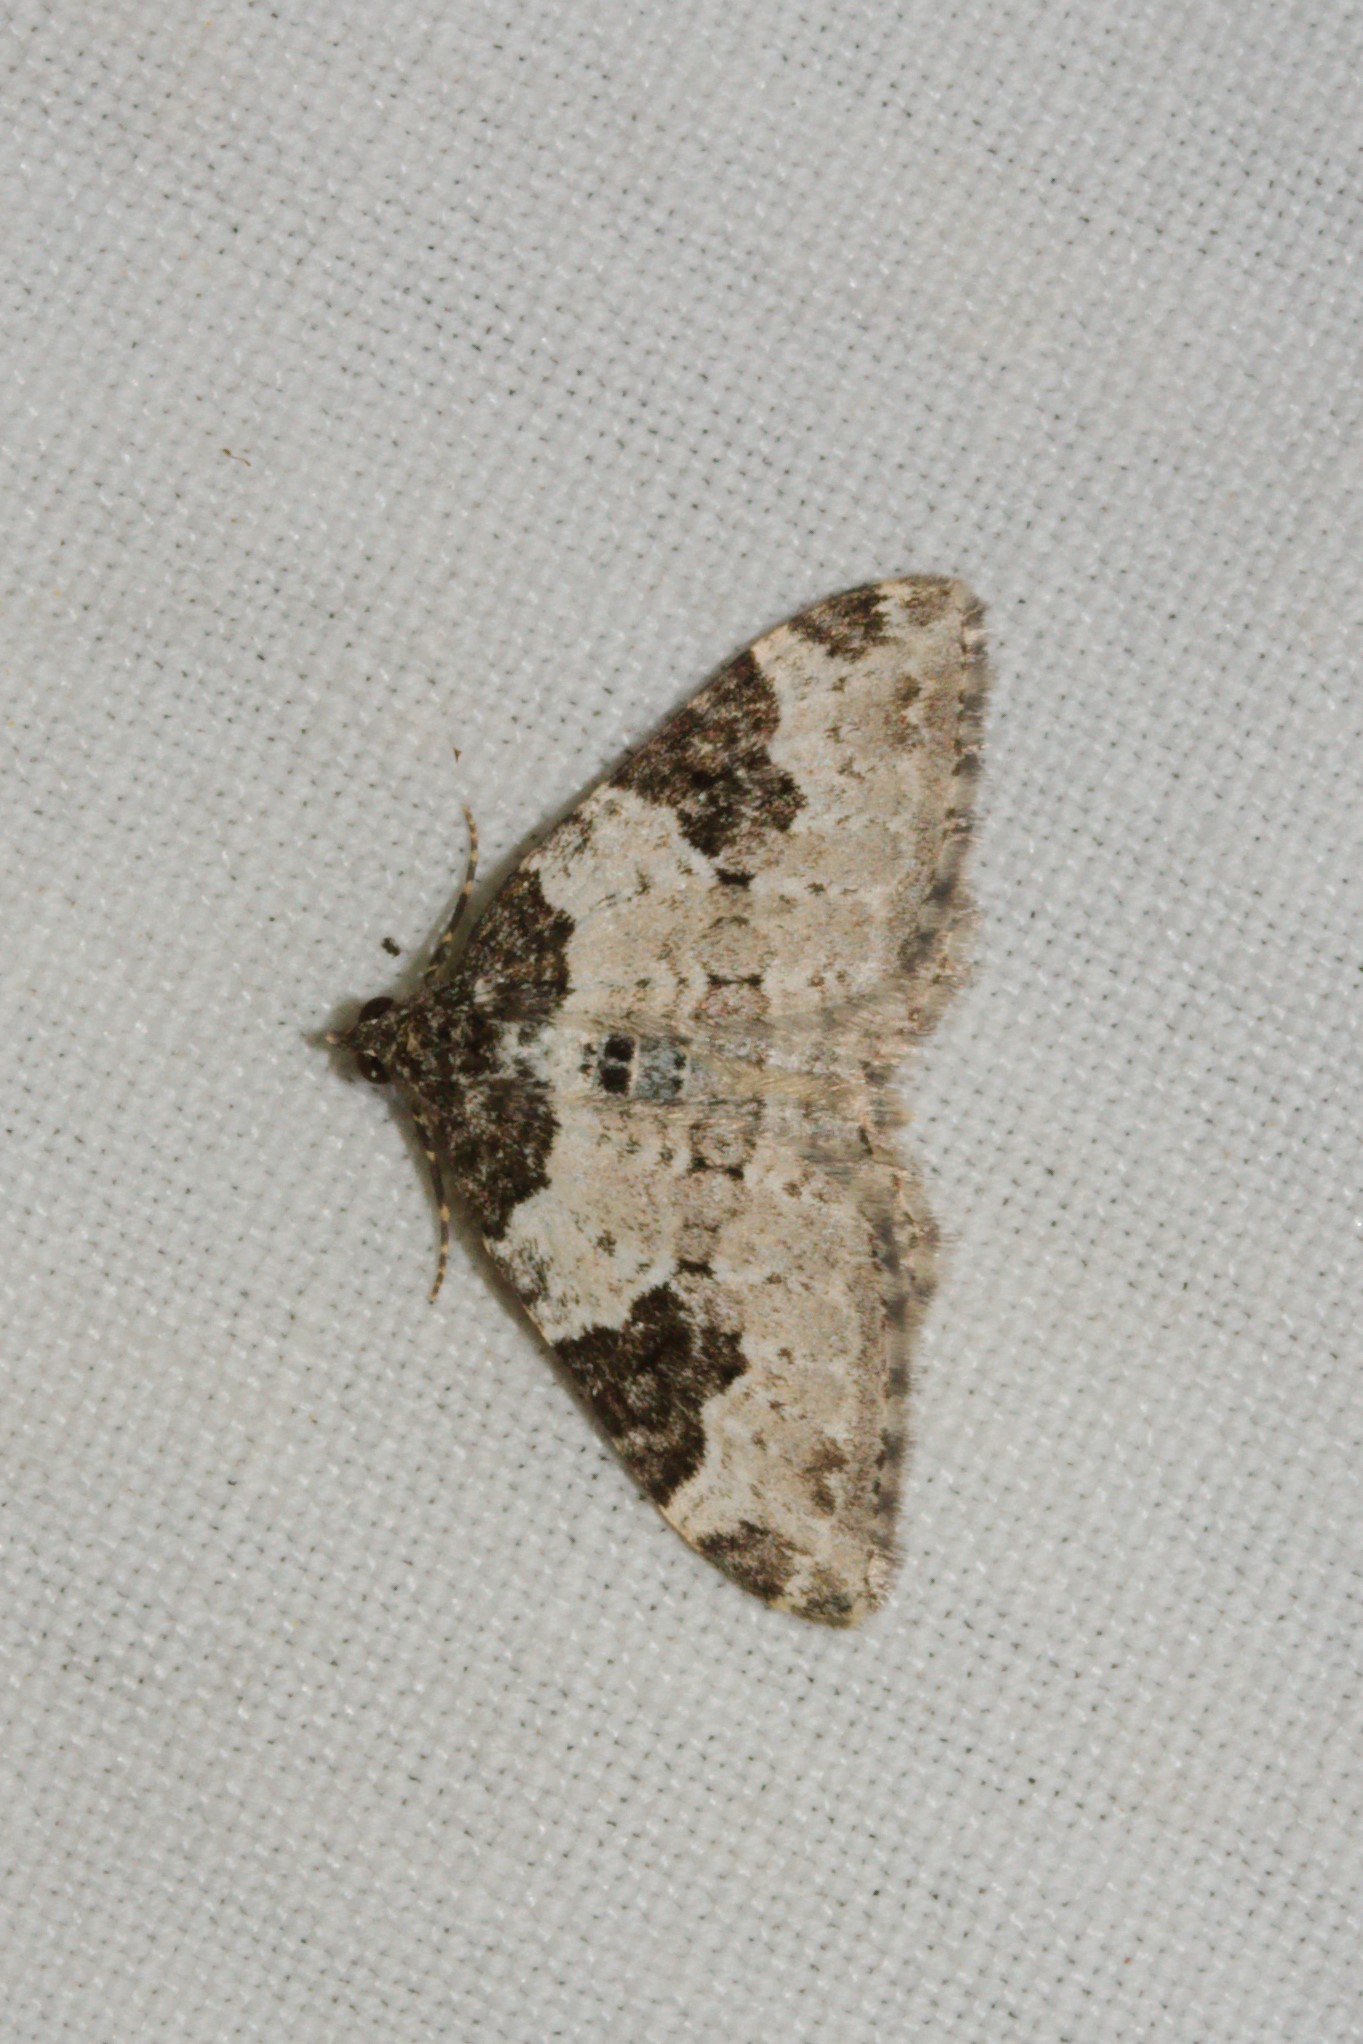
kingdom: Animalia
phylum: Arthropoda
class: Insecta
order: Lepidoptera
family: Geometridae
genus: Xanthorhoe
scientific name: Xanthorhoe fluctuata
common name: Garden carpet
